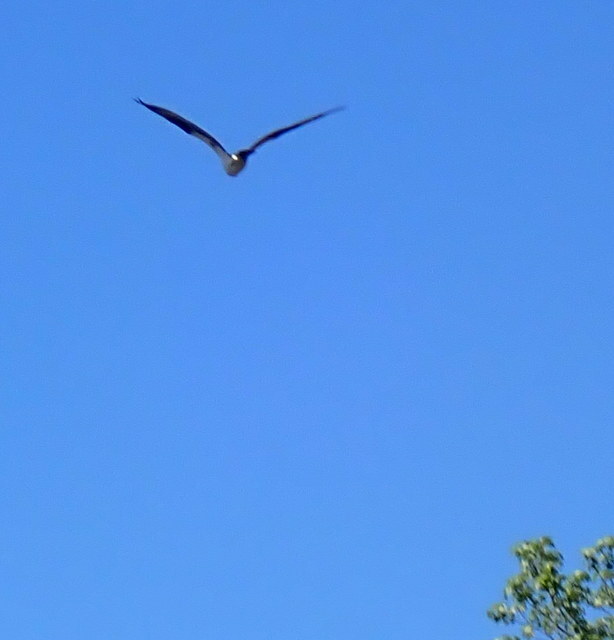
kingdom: Animalia
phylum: Chordata
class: Aves
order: Accipitriformes
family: Pandionidae
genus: Pandion
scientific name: Pandion haliaetus
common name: Osprey
